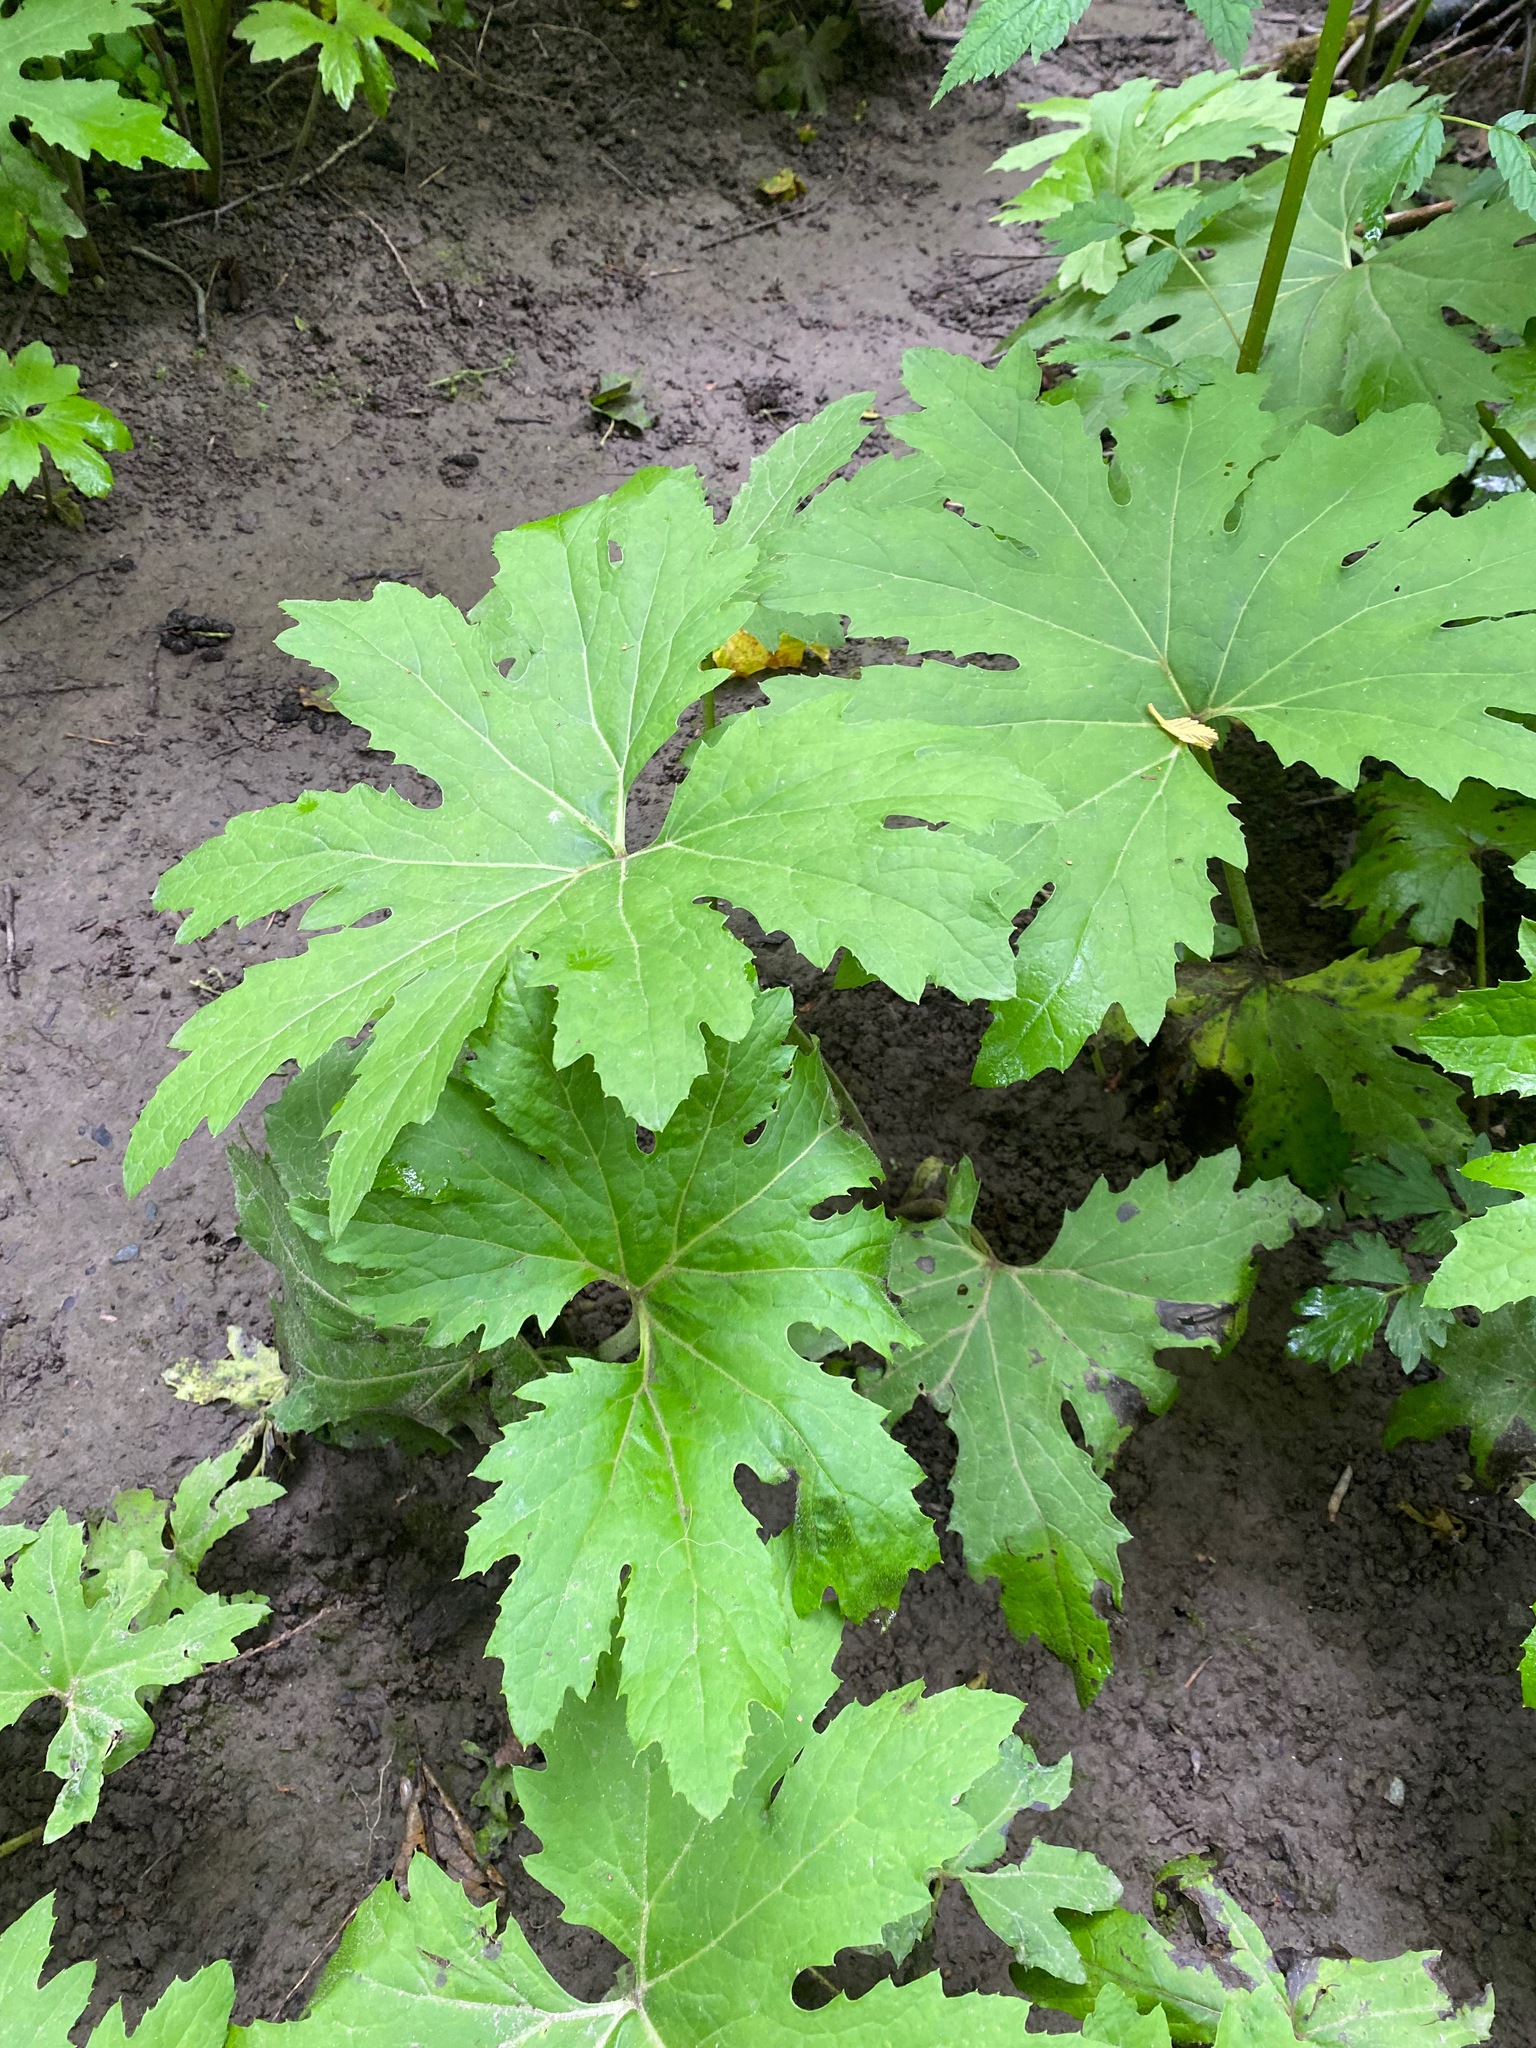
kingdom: Plantae
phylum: Tracheophyta
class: Magnoliopsida
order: Asterales
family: Asteraceae
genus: Petasites
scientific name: Petasites frigidus
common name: Arctic butterbur
